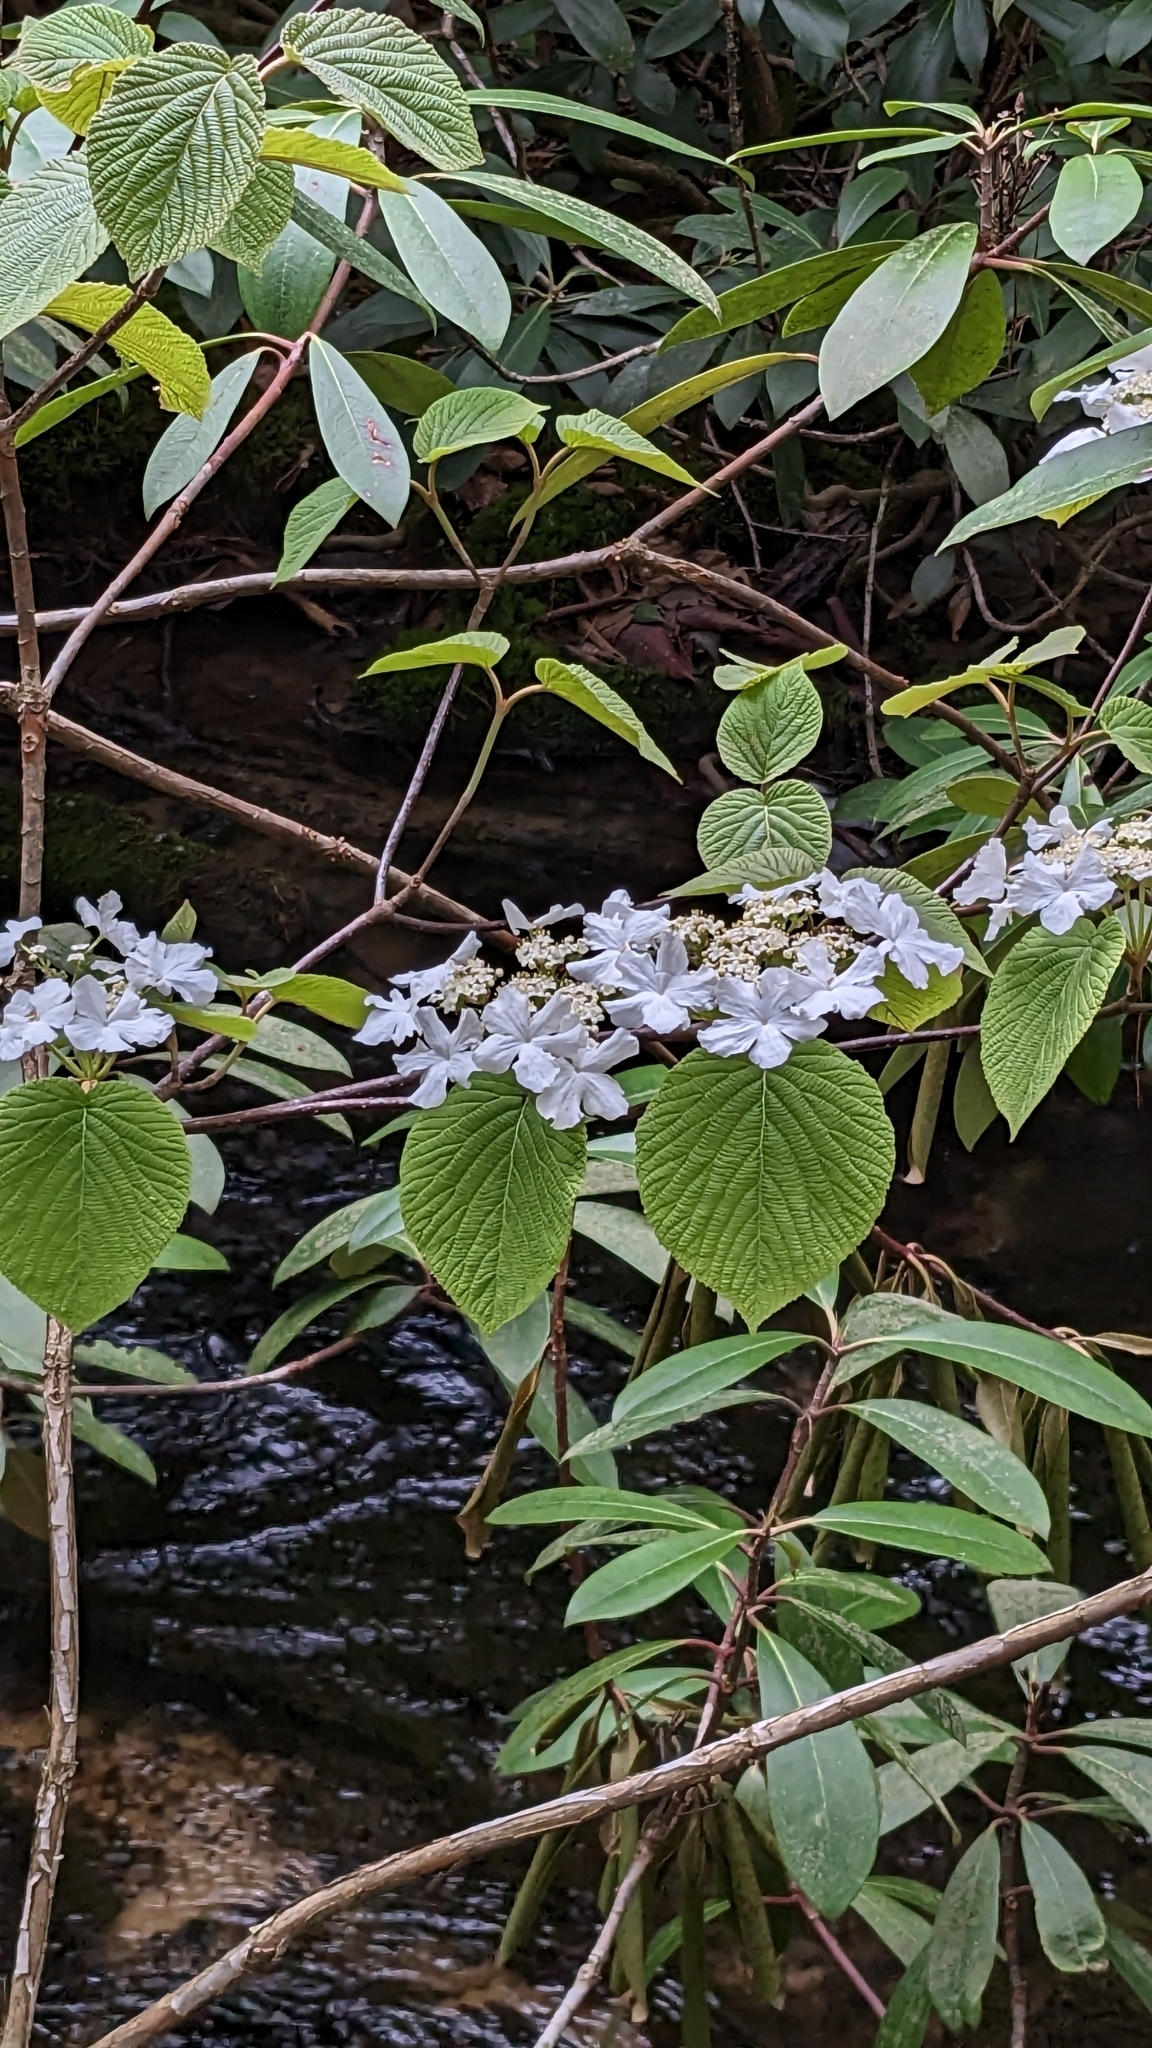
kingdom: Plantae
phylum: Tracheophyta
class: Magnoliopsida
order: Dipsacales
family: Viburnaceae
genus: Viburnum
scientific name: Viburnum lantanoides
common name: Hobblebush
